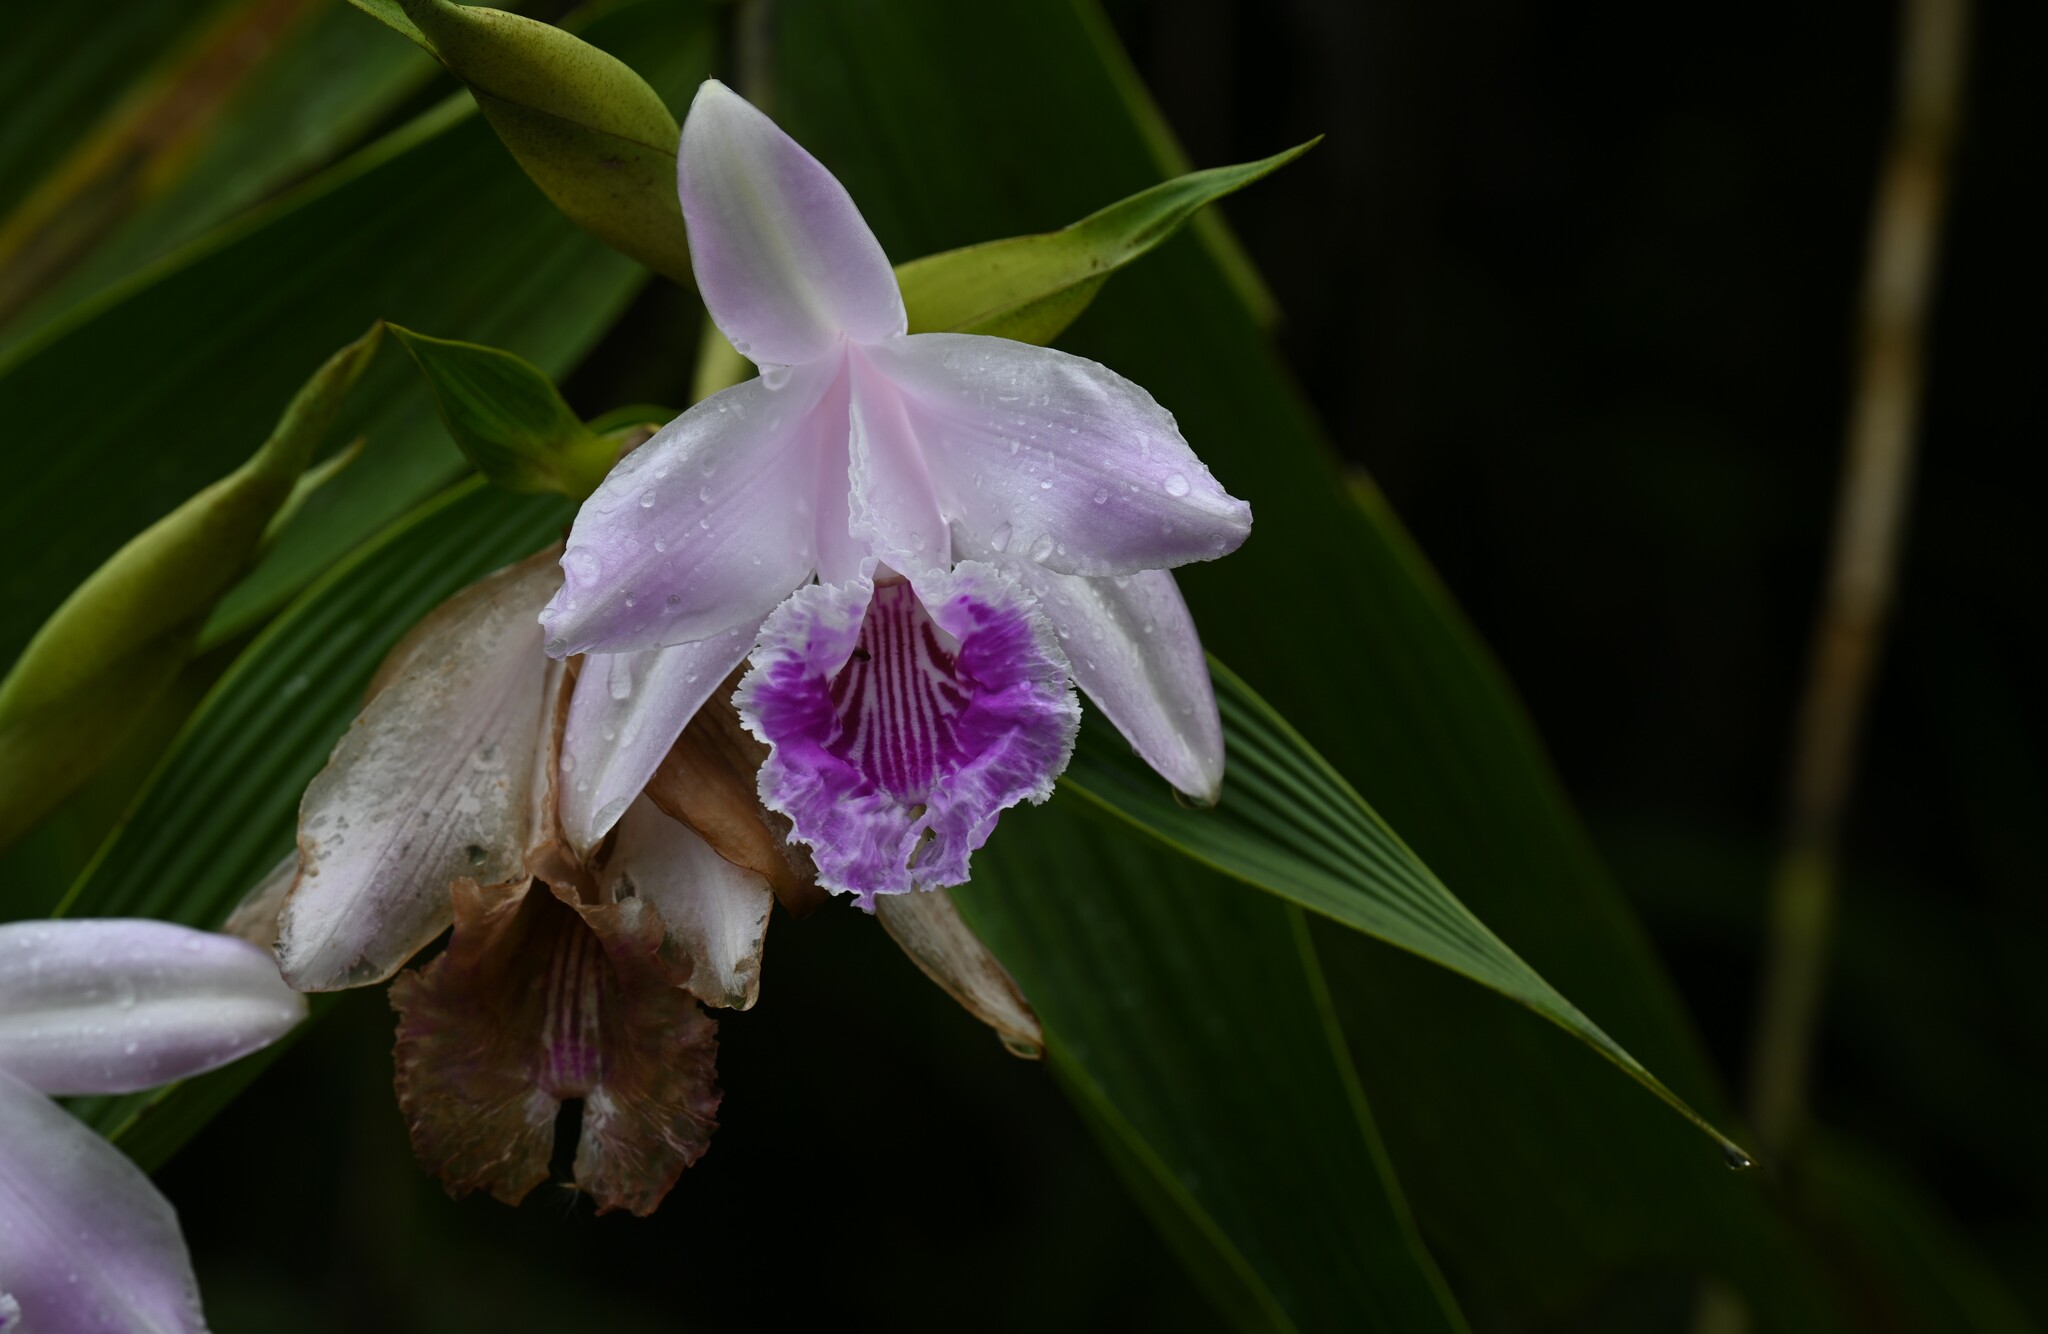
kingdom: Plantae
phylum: Tracheophyta
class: Liliopsida
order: Asparagales
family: Orchidaceae
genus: Sobralia
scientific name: Sobralia rosea
